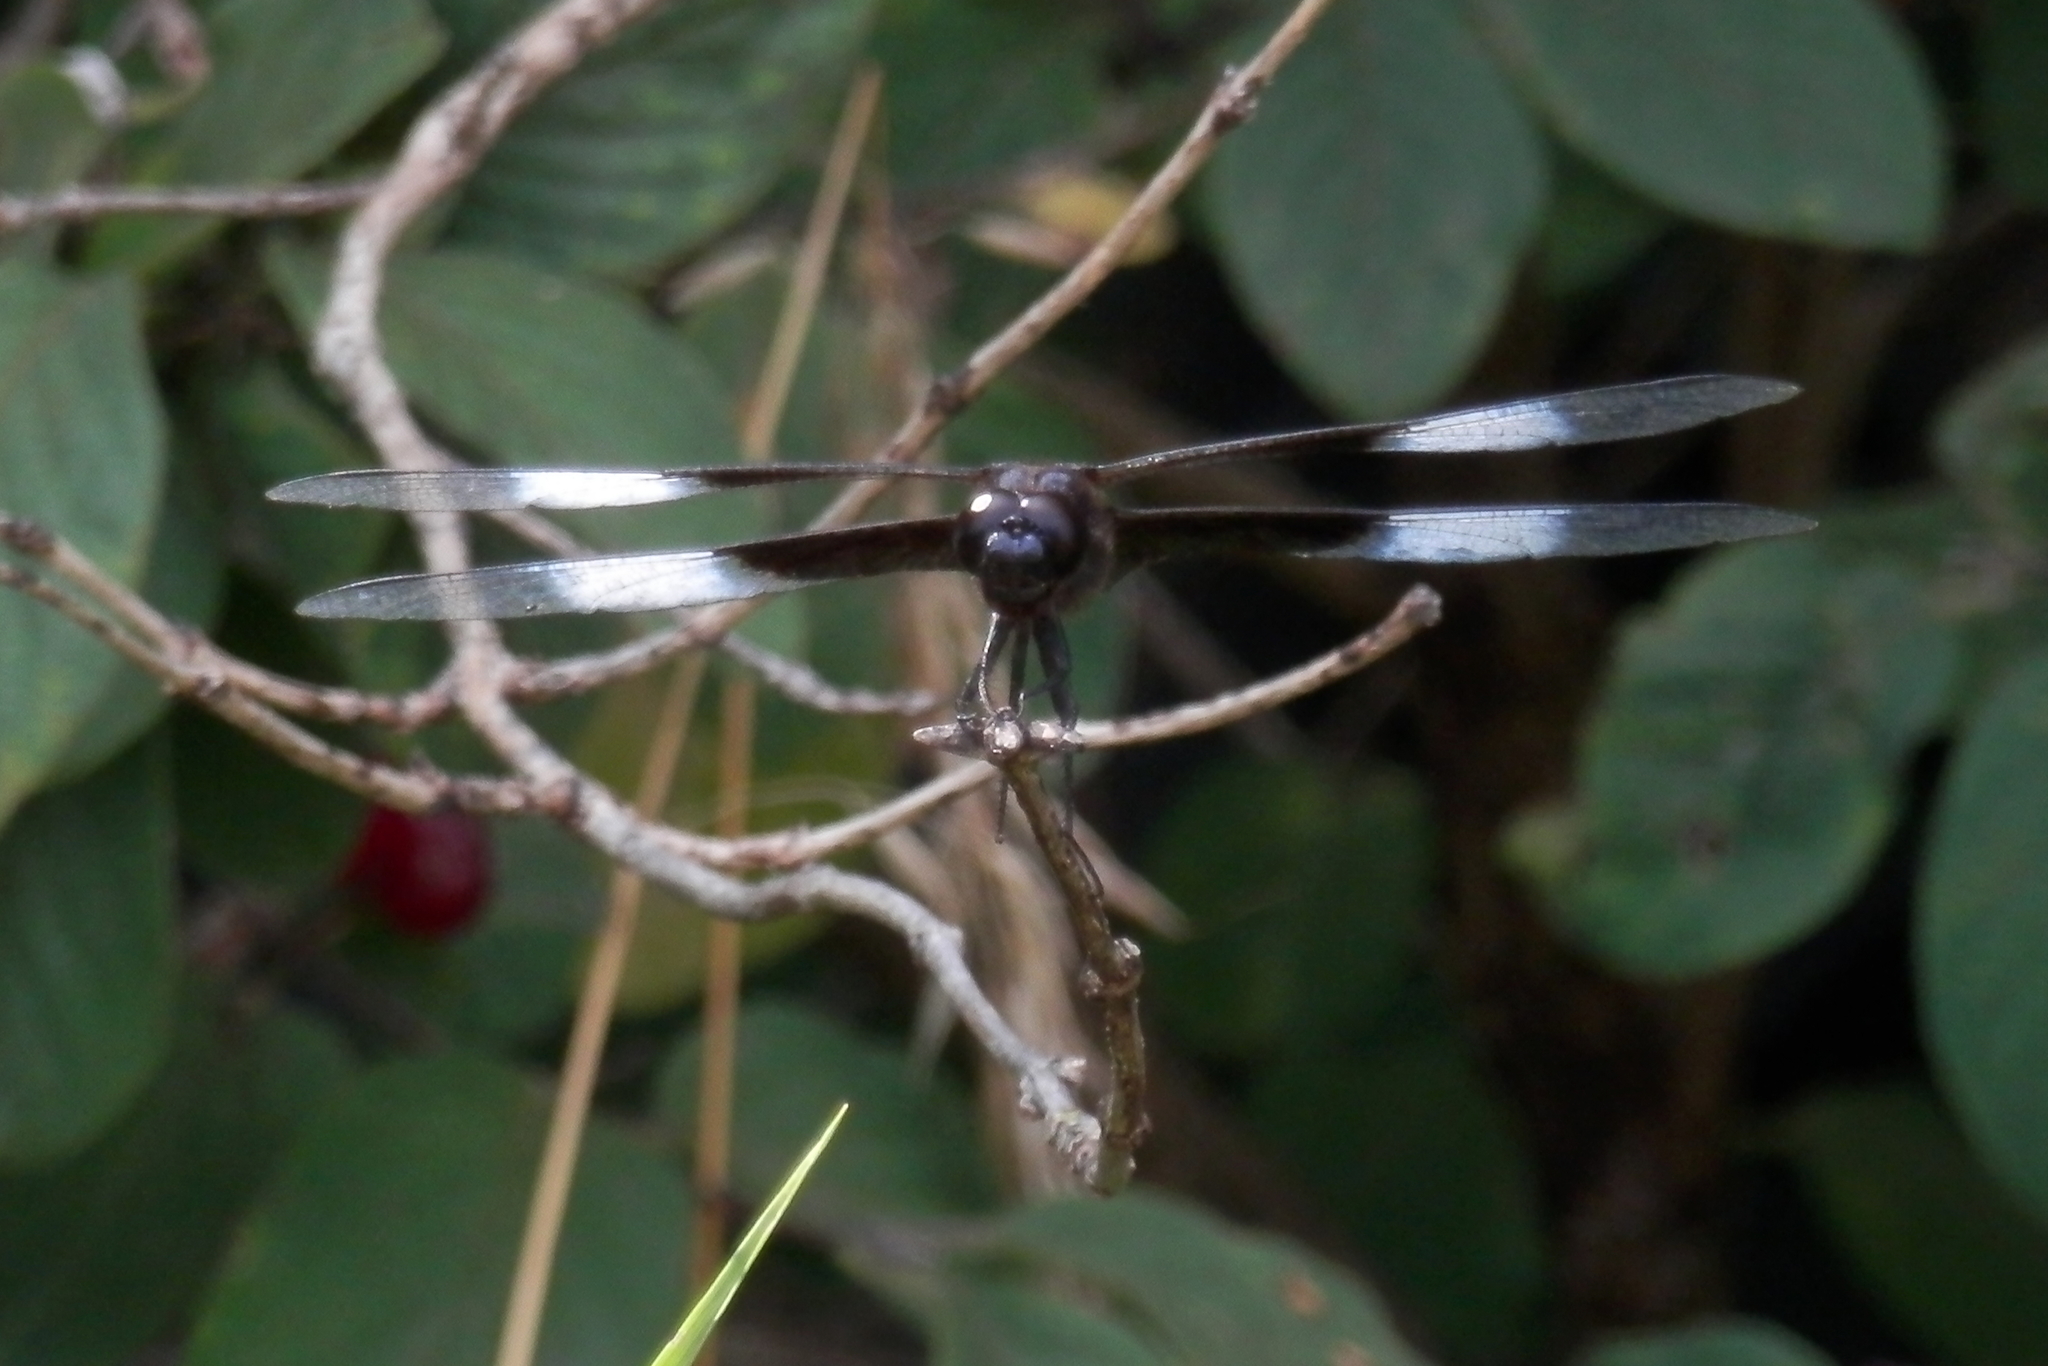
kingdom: Animalia
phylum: Arthropoda
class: Insecta
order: Odonata
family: Libellulidae
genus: Libellula
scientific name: Libellula luctuosa
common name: Widow skimmer
